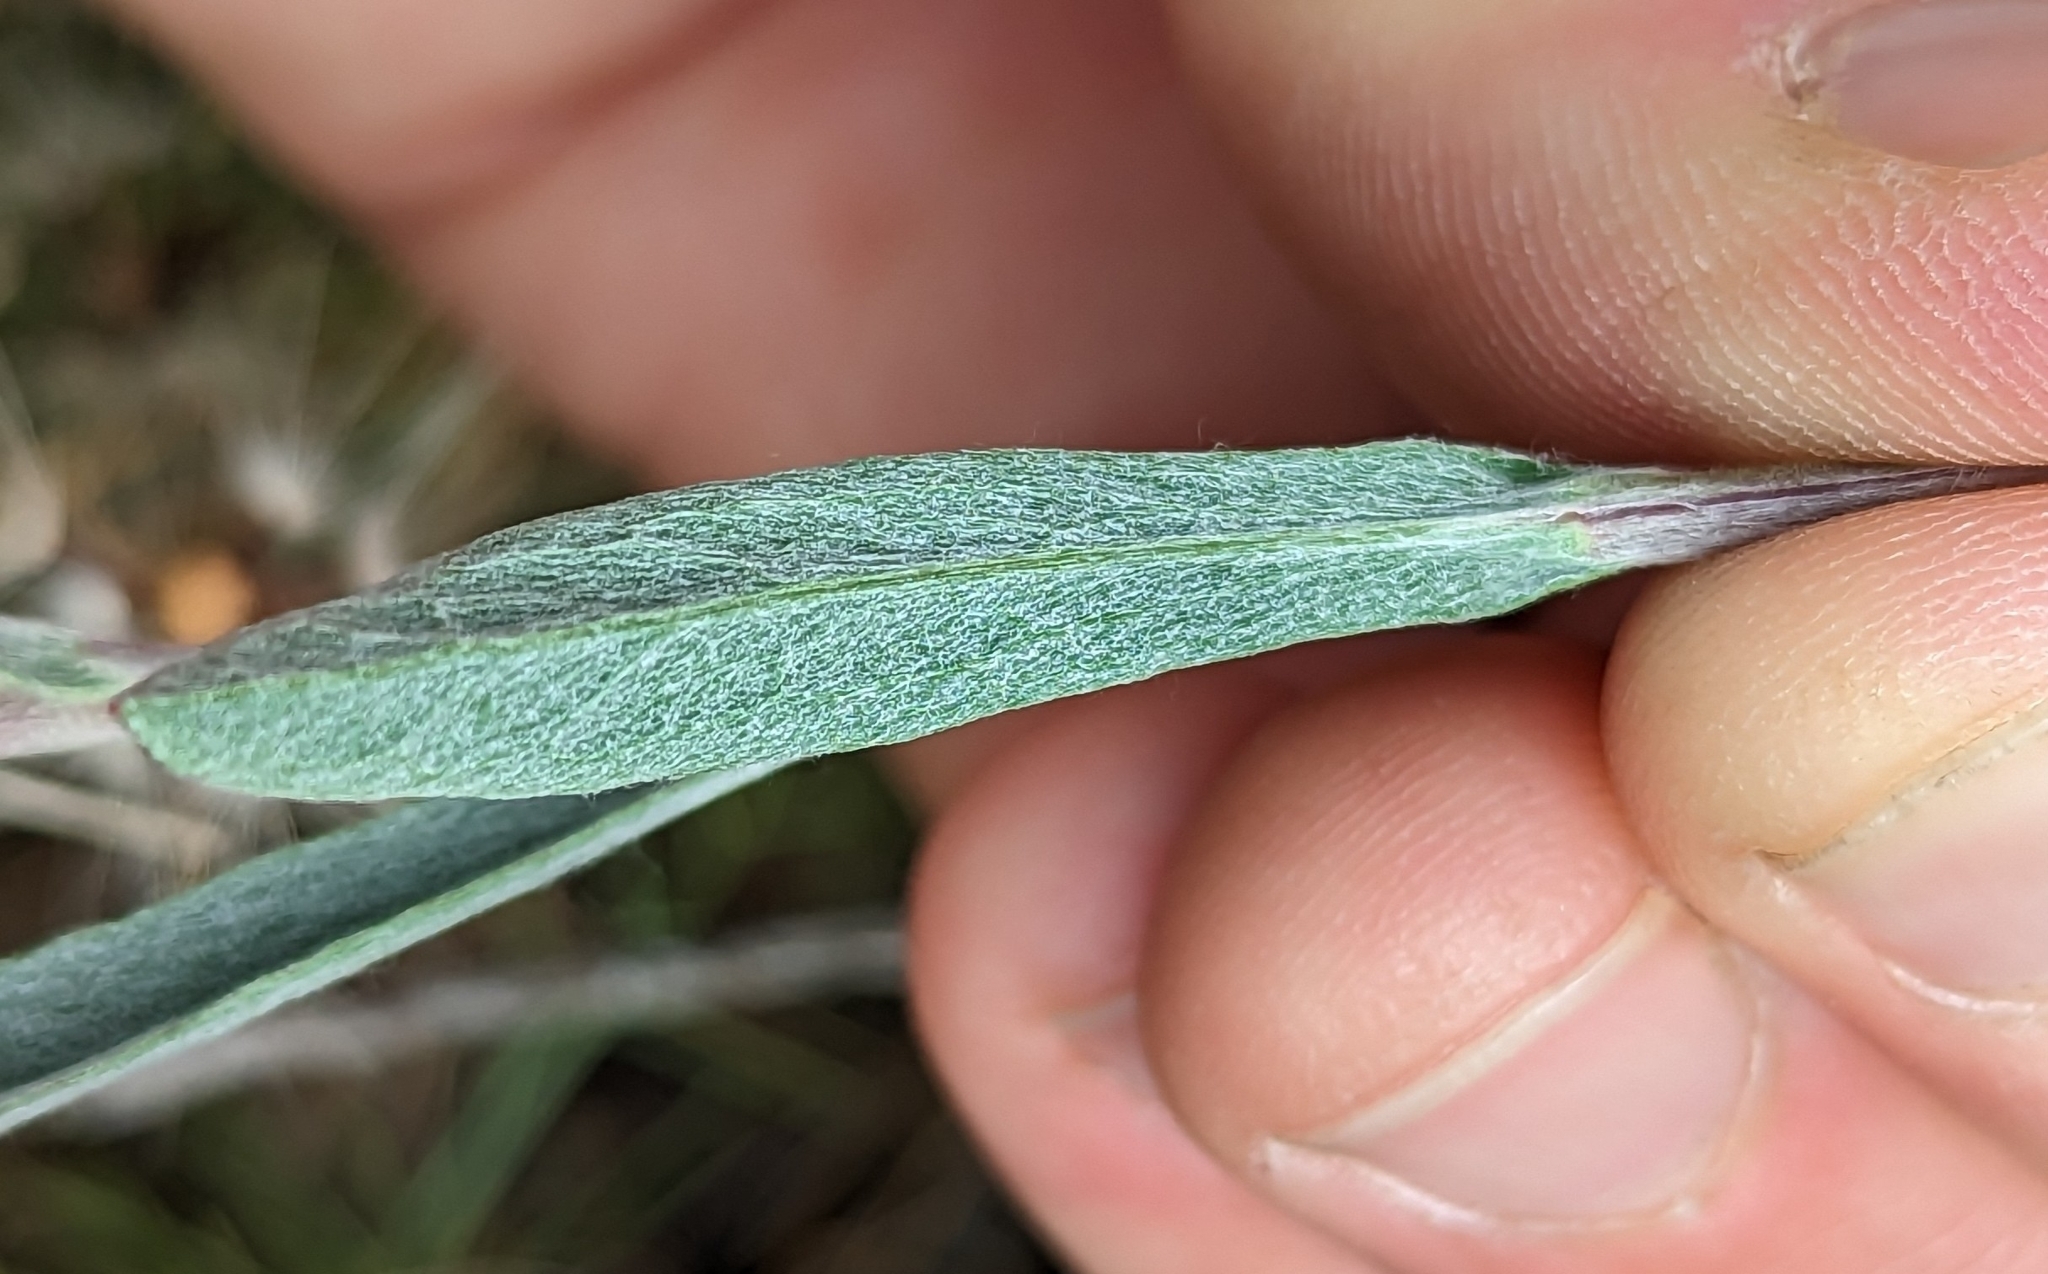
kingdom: Plantae
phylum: Tracheophyta
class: Magnoliopsida
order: Asterales
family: Asteraceae
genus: Corethrogyne
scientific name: Corethrogyne filaginifolia
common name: Sand-aster
